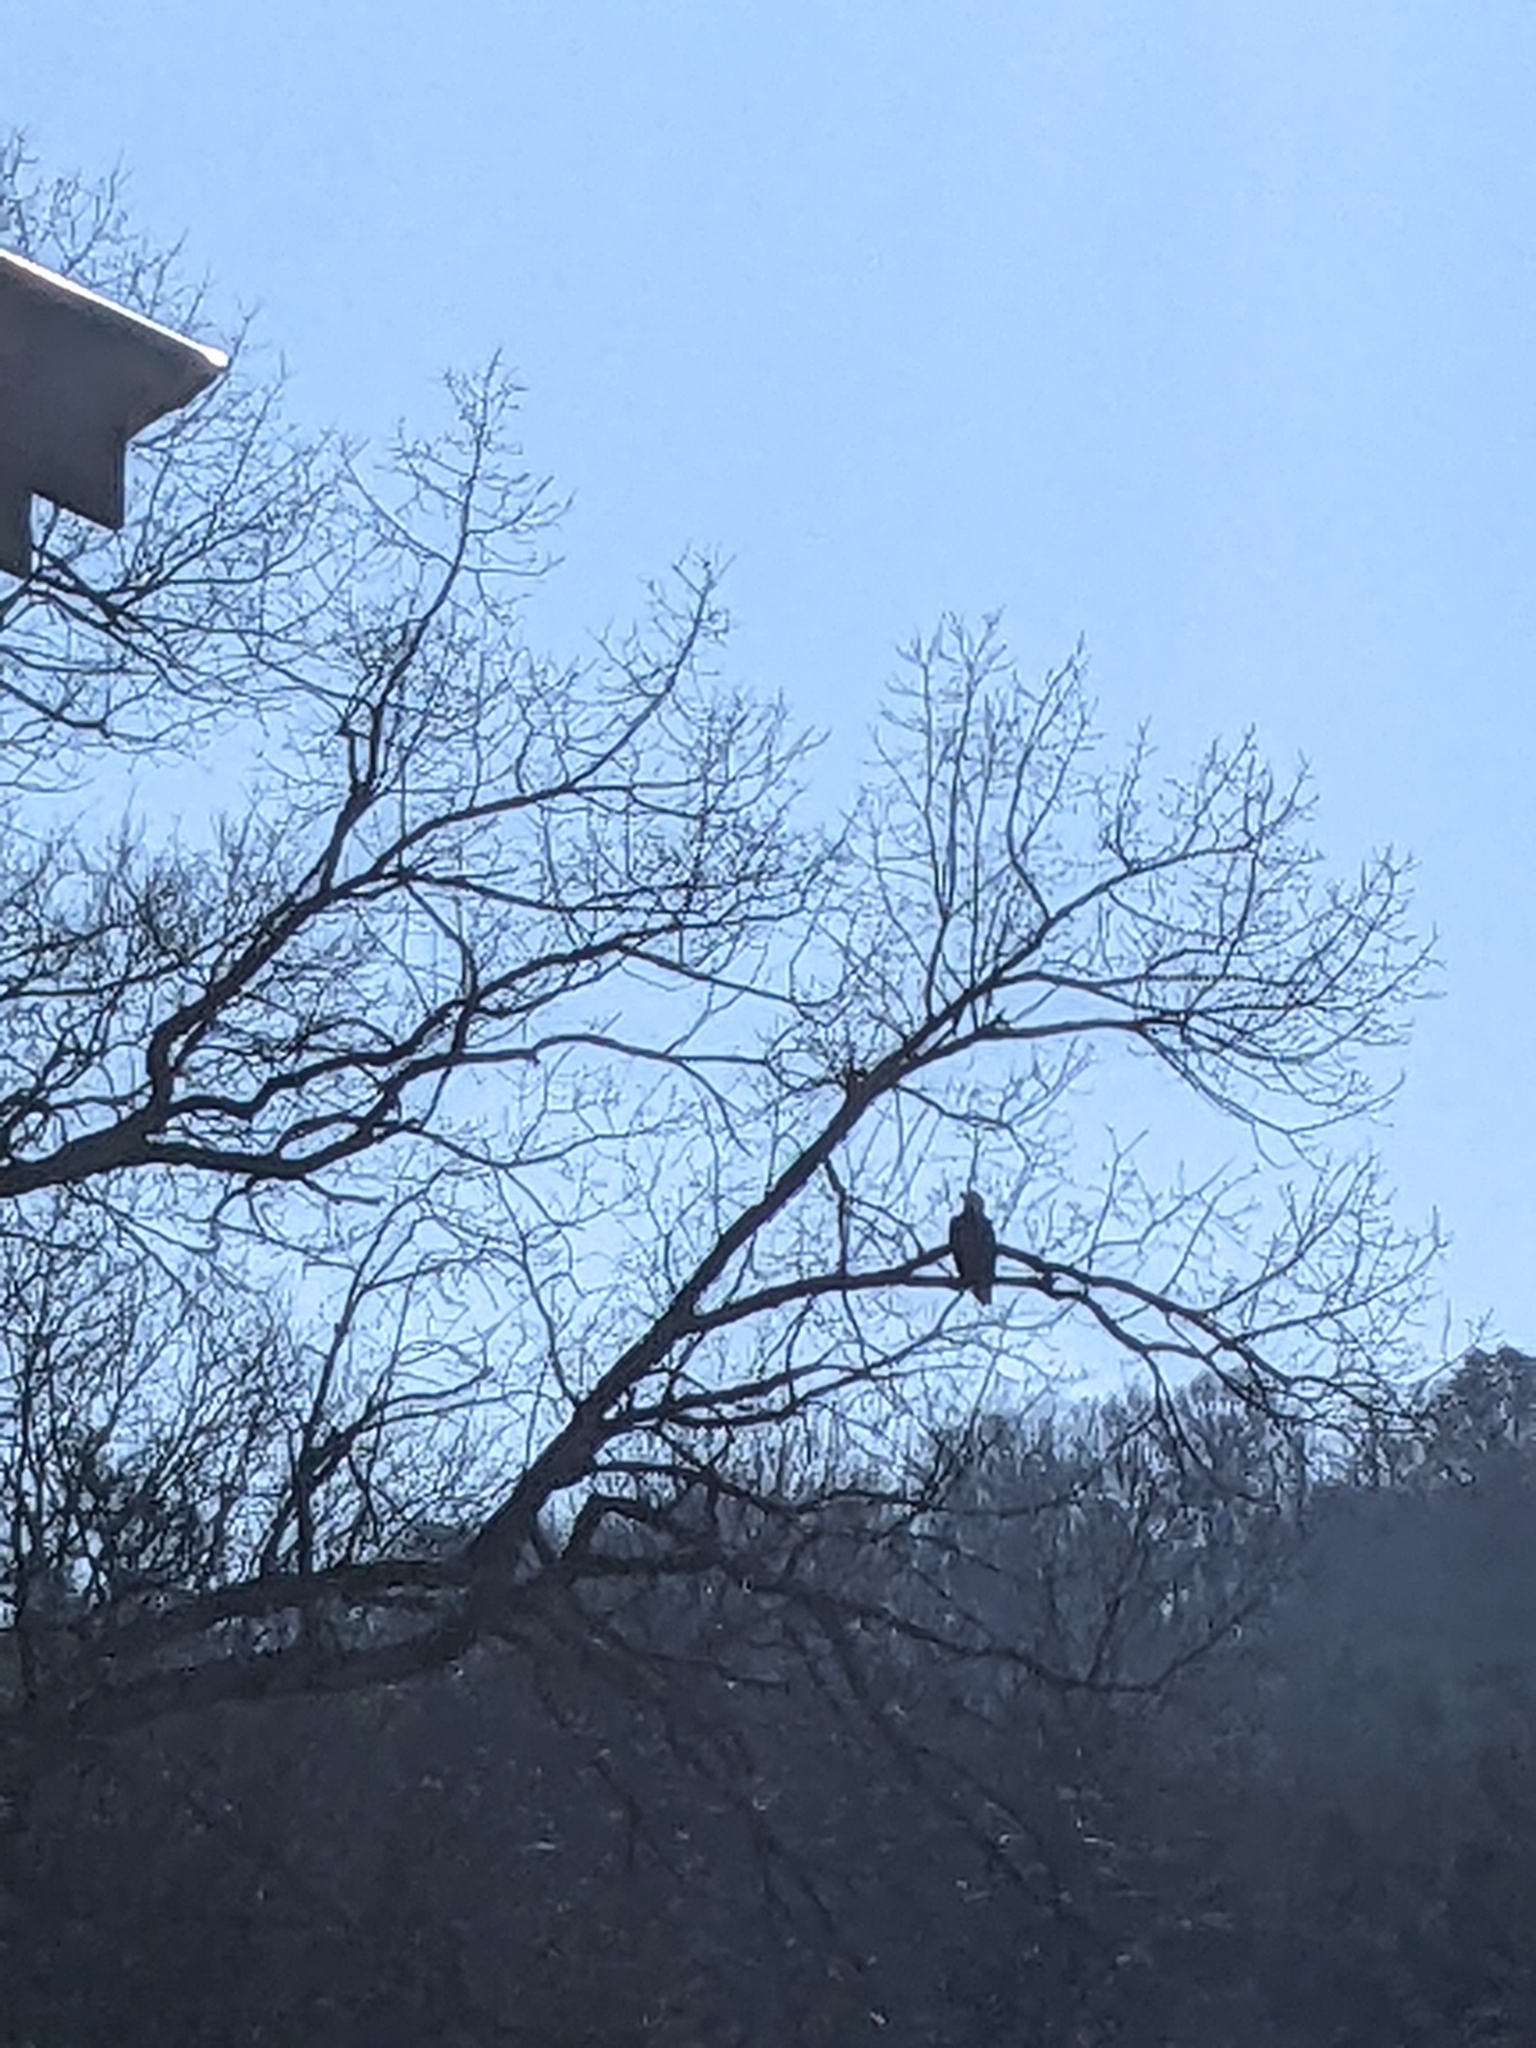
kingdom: Animalia
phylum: Chordata
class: Aves
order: Accipitriformes
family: Accipitridae
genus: Haliaeetus
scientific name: Haliaeetus leucocephalus
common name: Bald eagle
